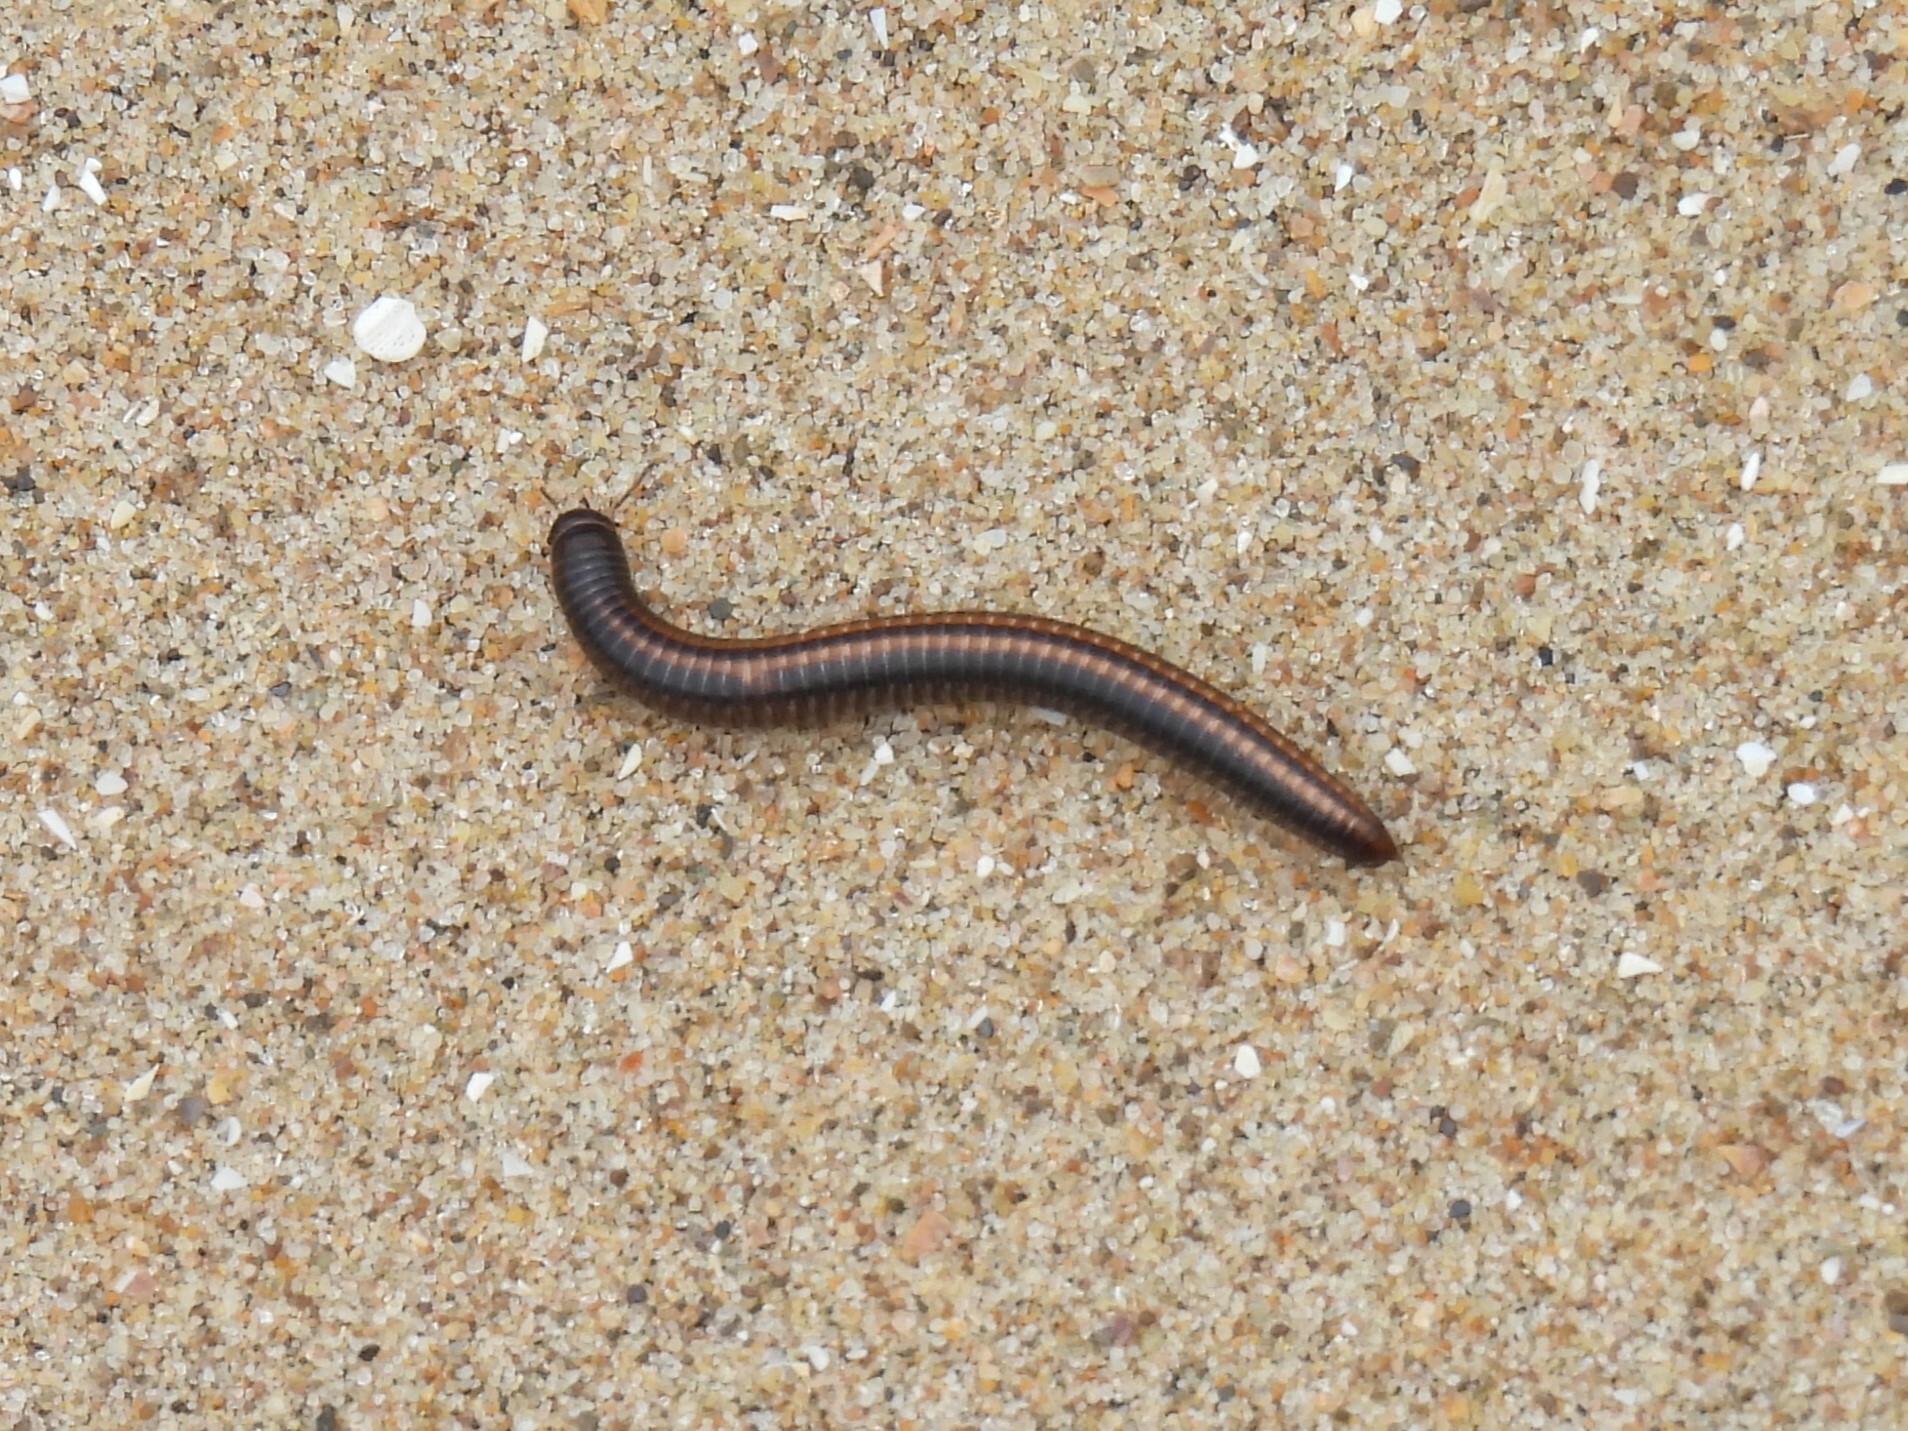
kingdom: Animalia
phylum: Arthropoda
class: Diplopoda
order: Julida
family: Julidae
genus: Ommatoiulus
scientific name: Ommatoiulus sabulosus
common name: Striped millipede
